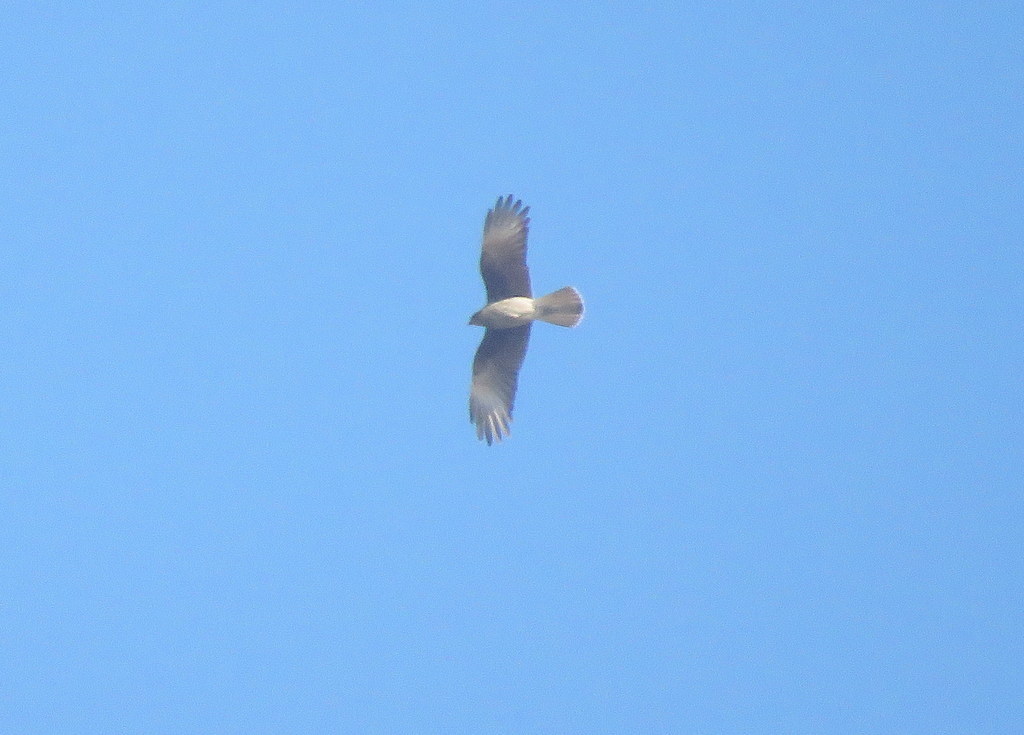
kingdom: Animalia
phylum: Chordata
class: Aves
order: Falconiformes
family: Falconidae
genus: Daptrius
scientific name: Daptrius
